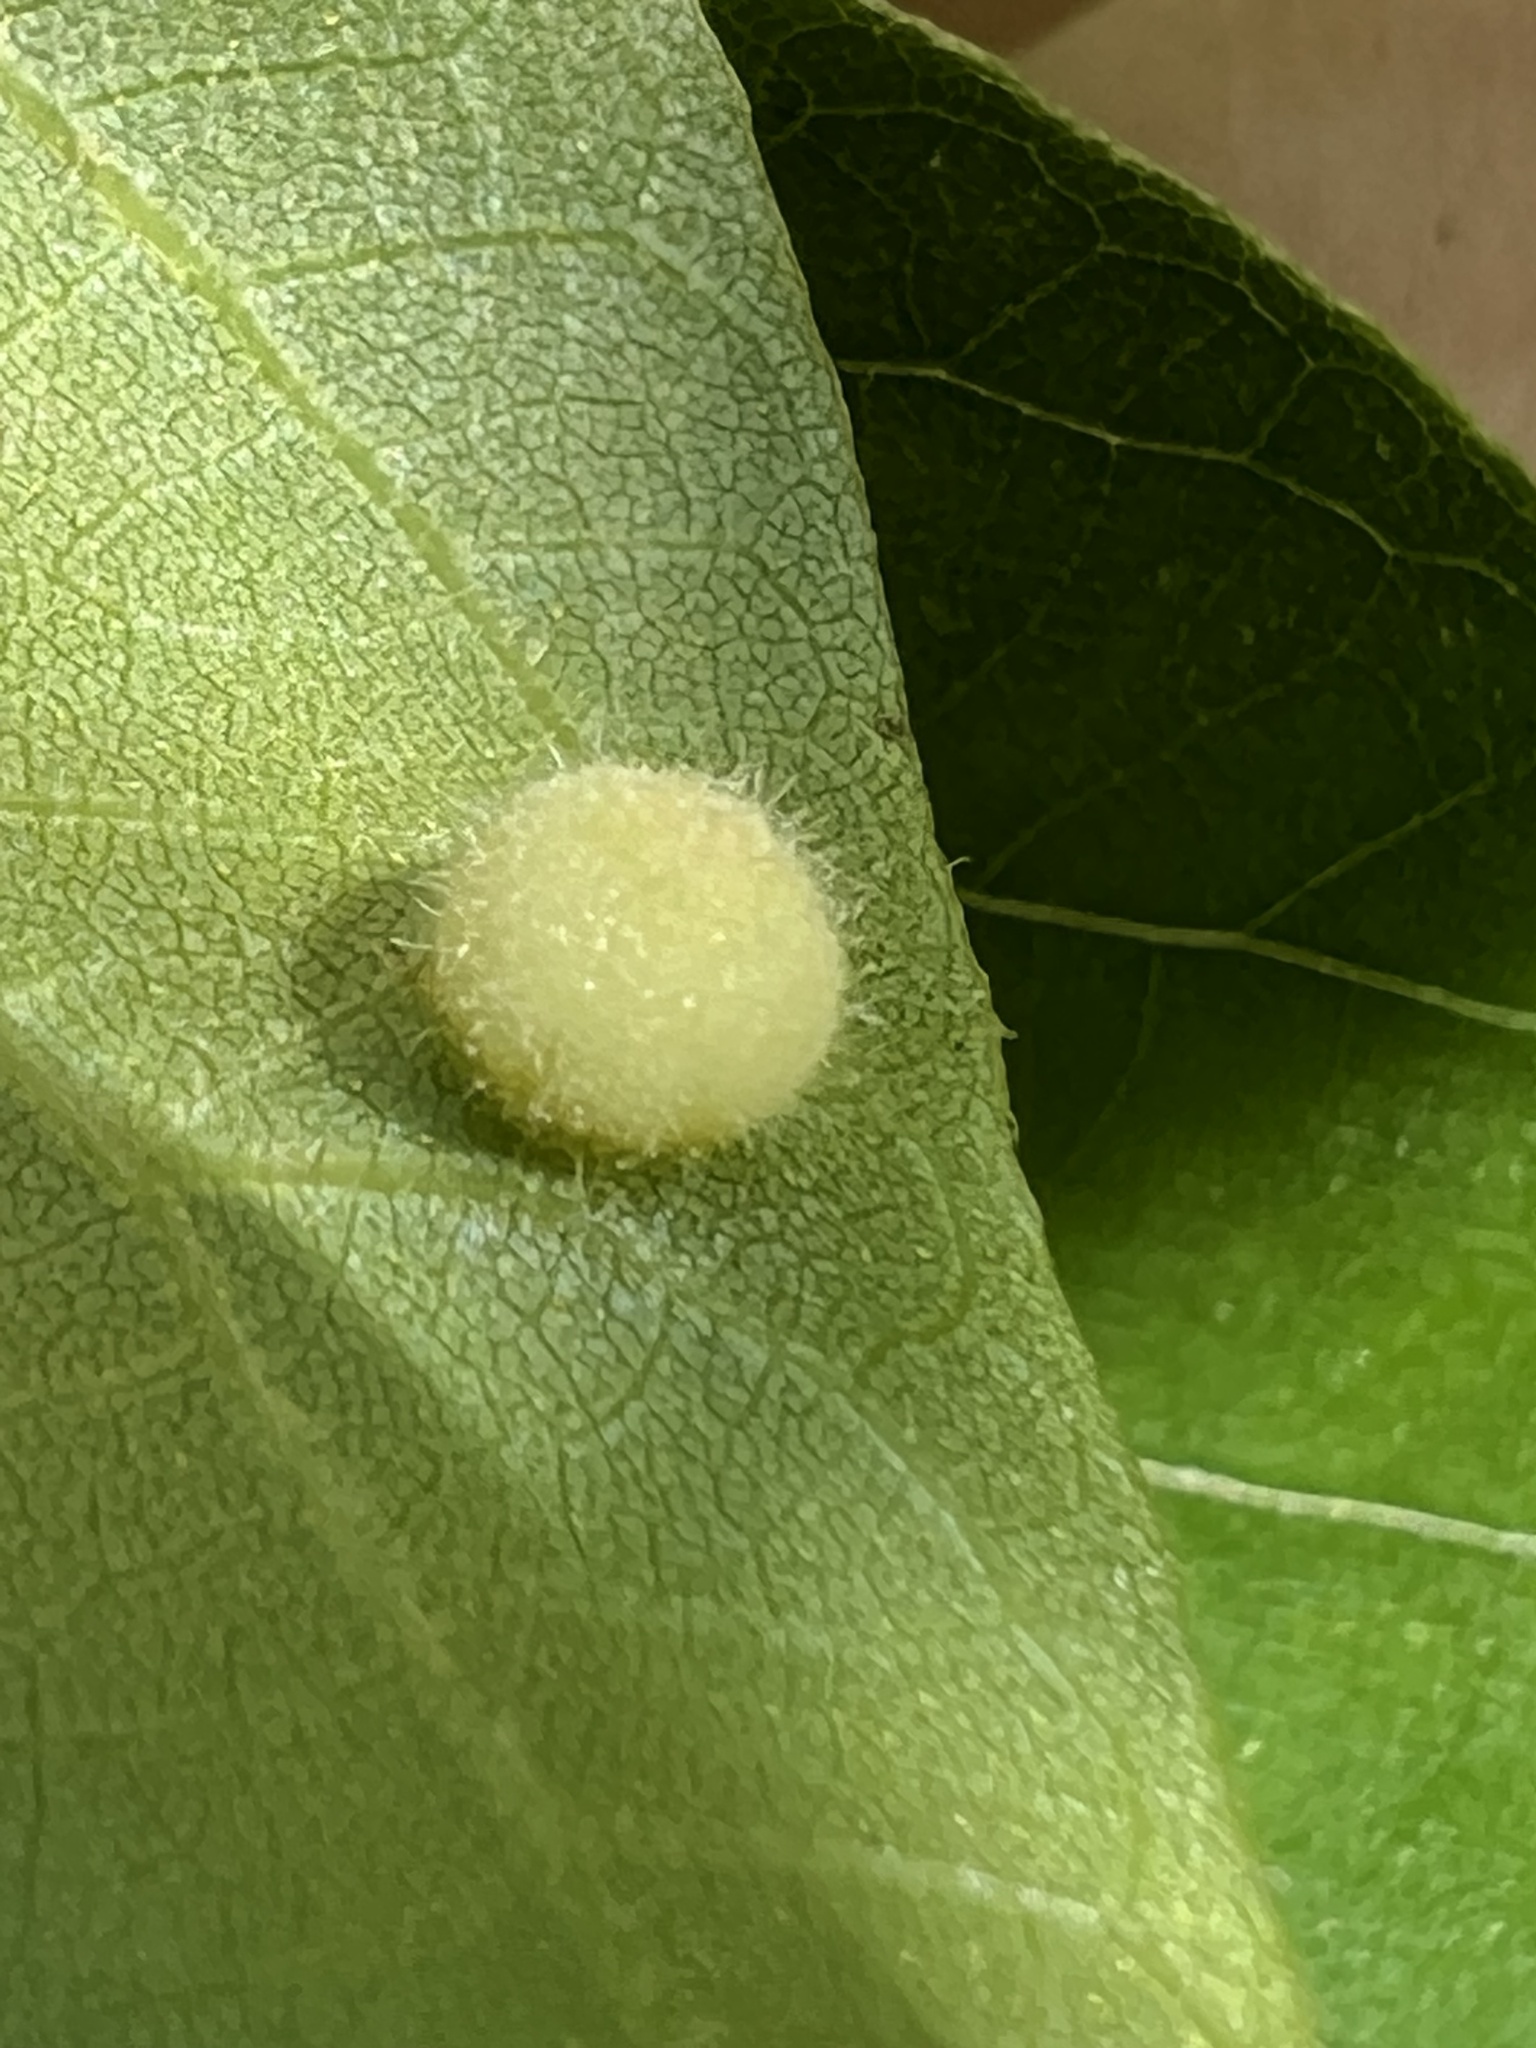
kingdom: Animalia
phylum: Arthropoda
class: Insecta
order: Hemiptera
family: Phylloxeridae
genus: Phylloxera
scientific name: Phylloxera caryae-avellana
